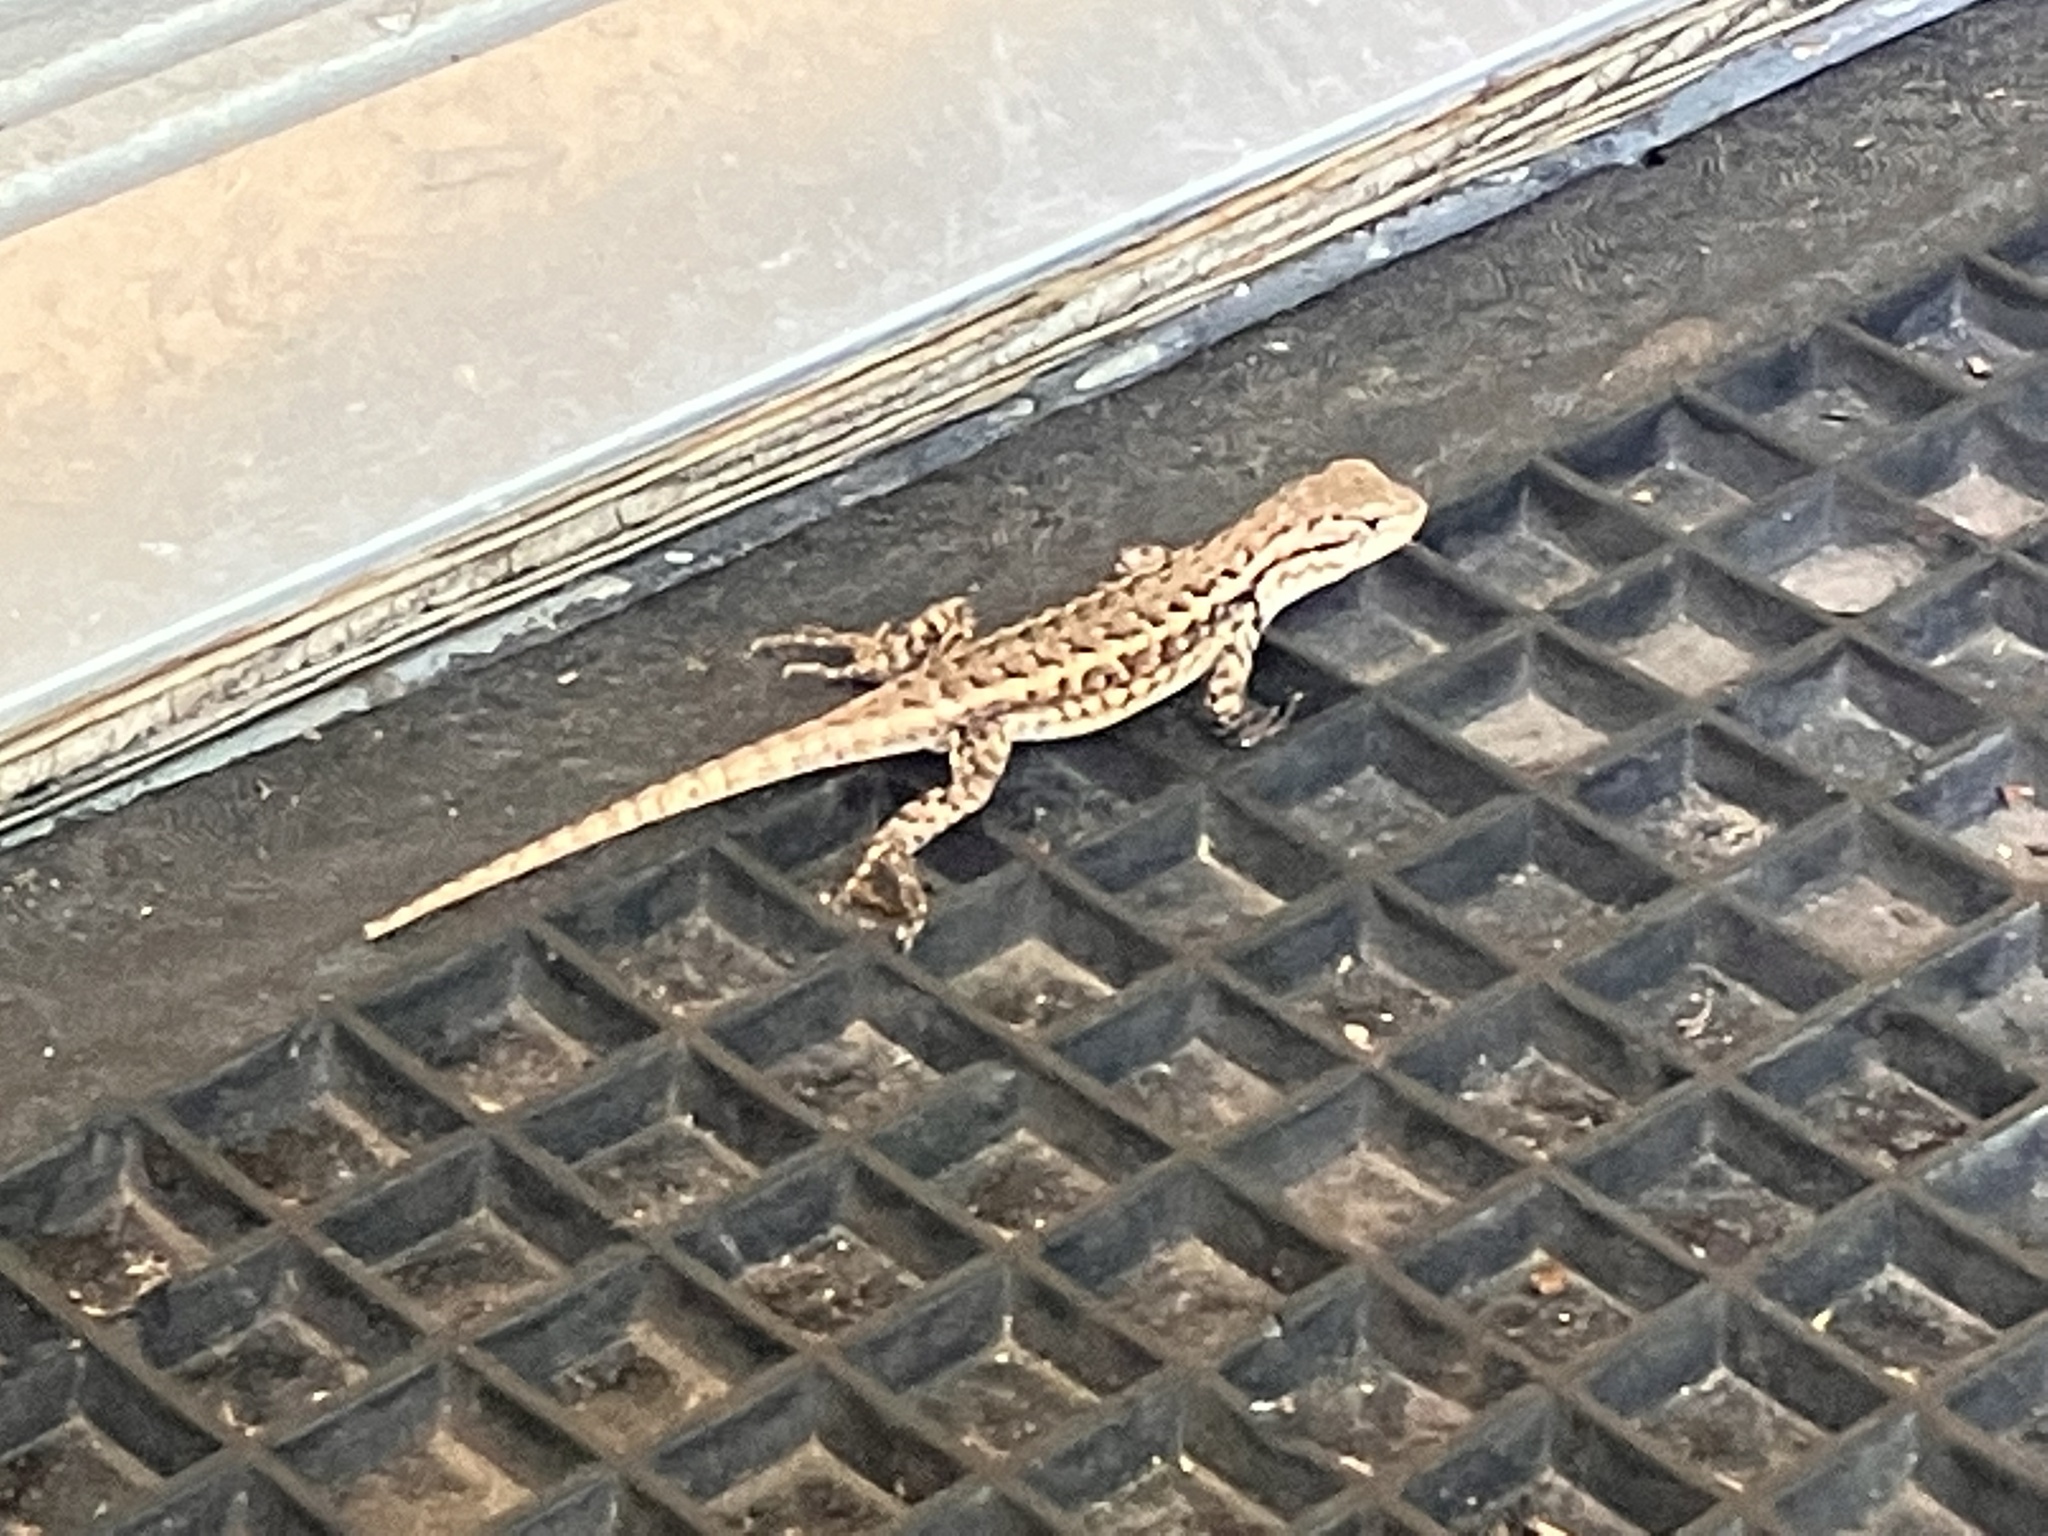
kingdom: Animalia
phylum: Chordata
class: Squamata
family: Phrynosomatidae
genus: Sceloporus
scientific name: Sceloporus tristichus
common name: Plateau fence lizard
